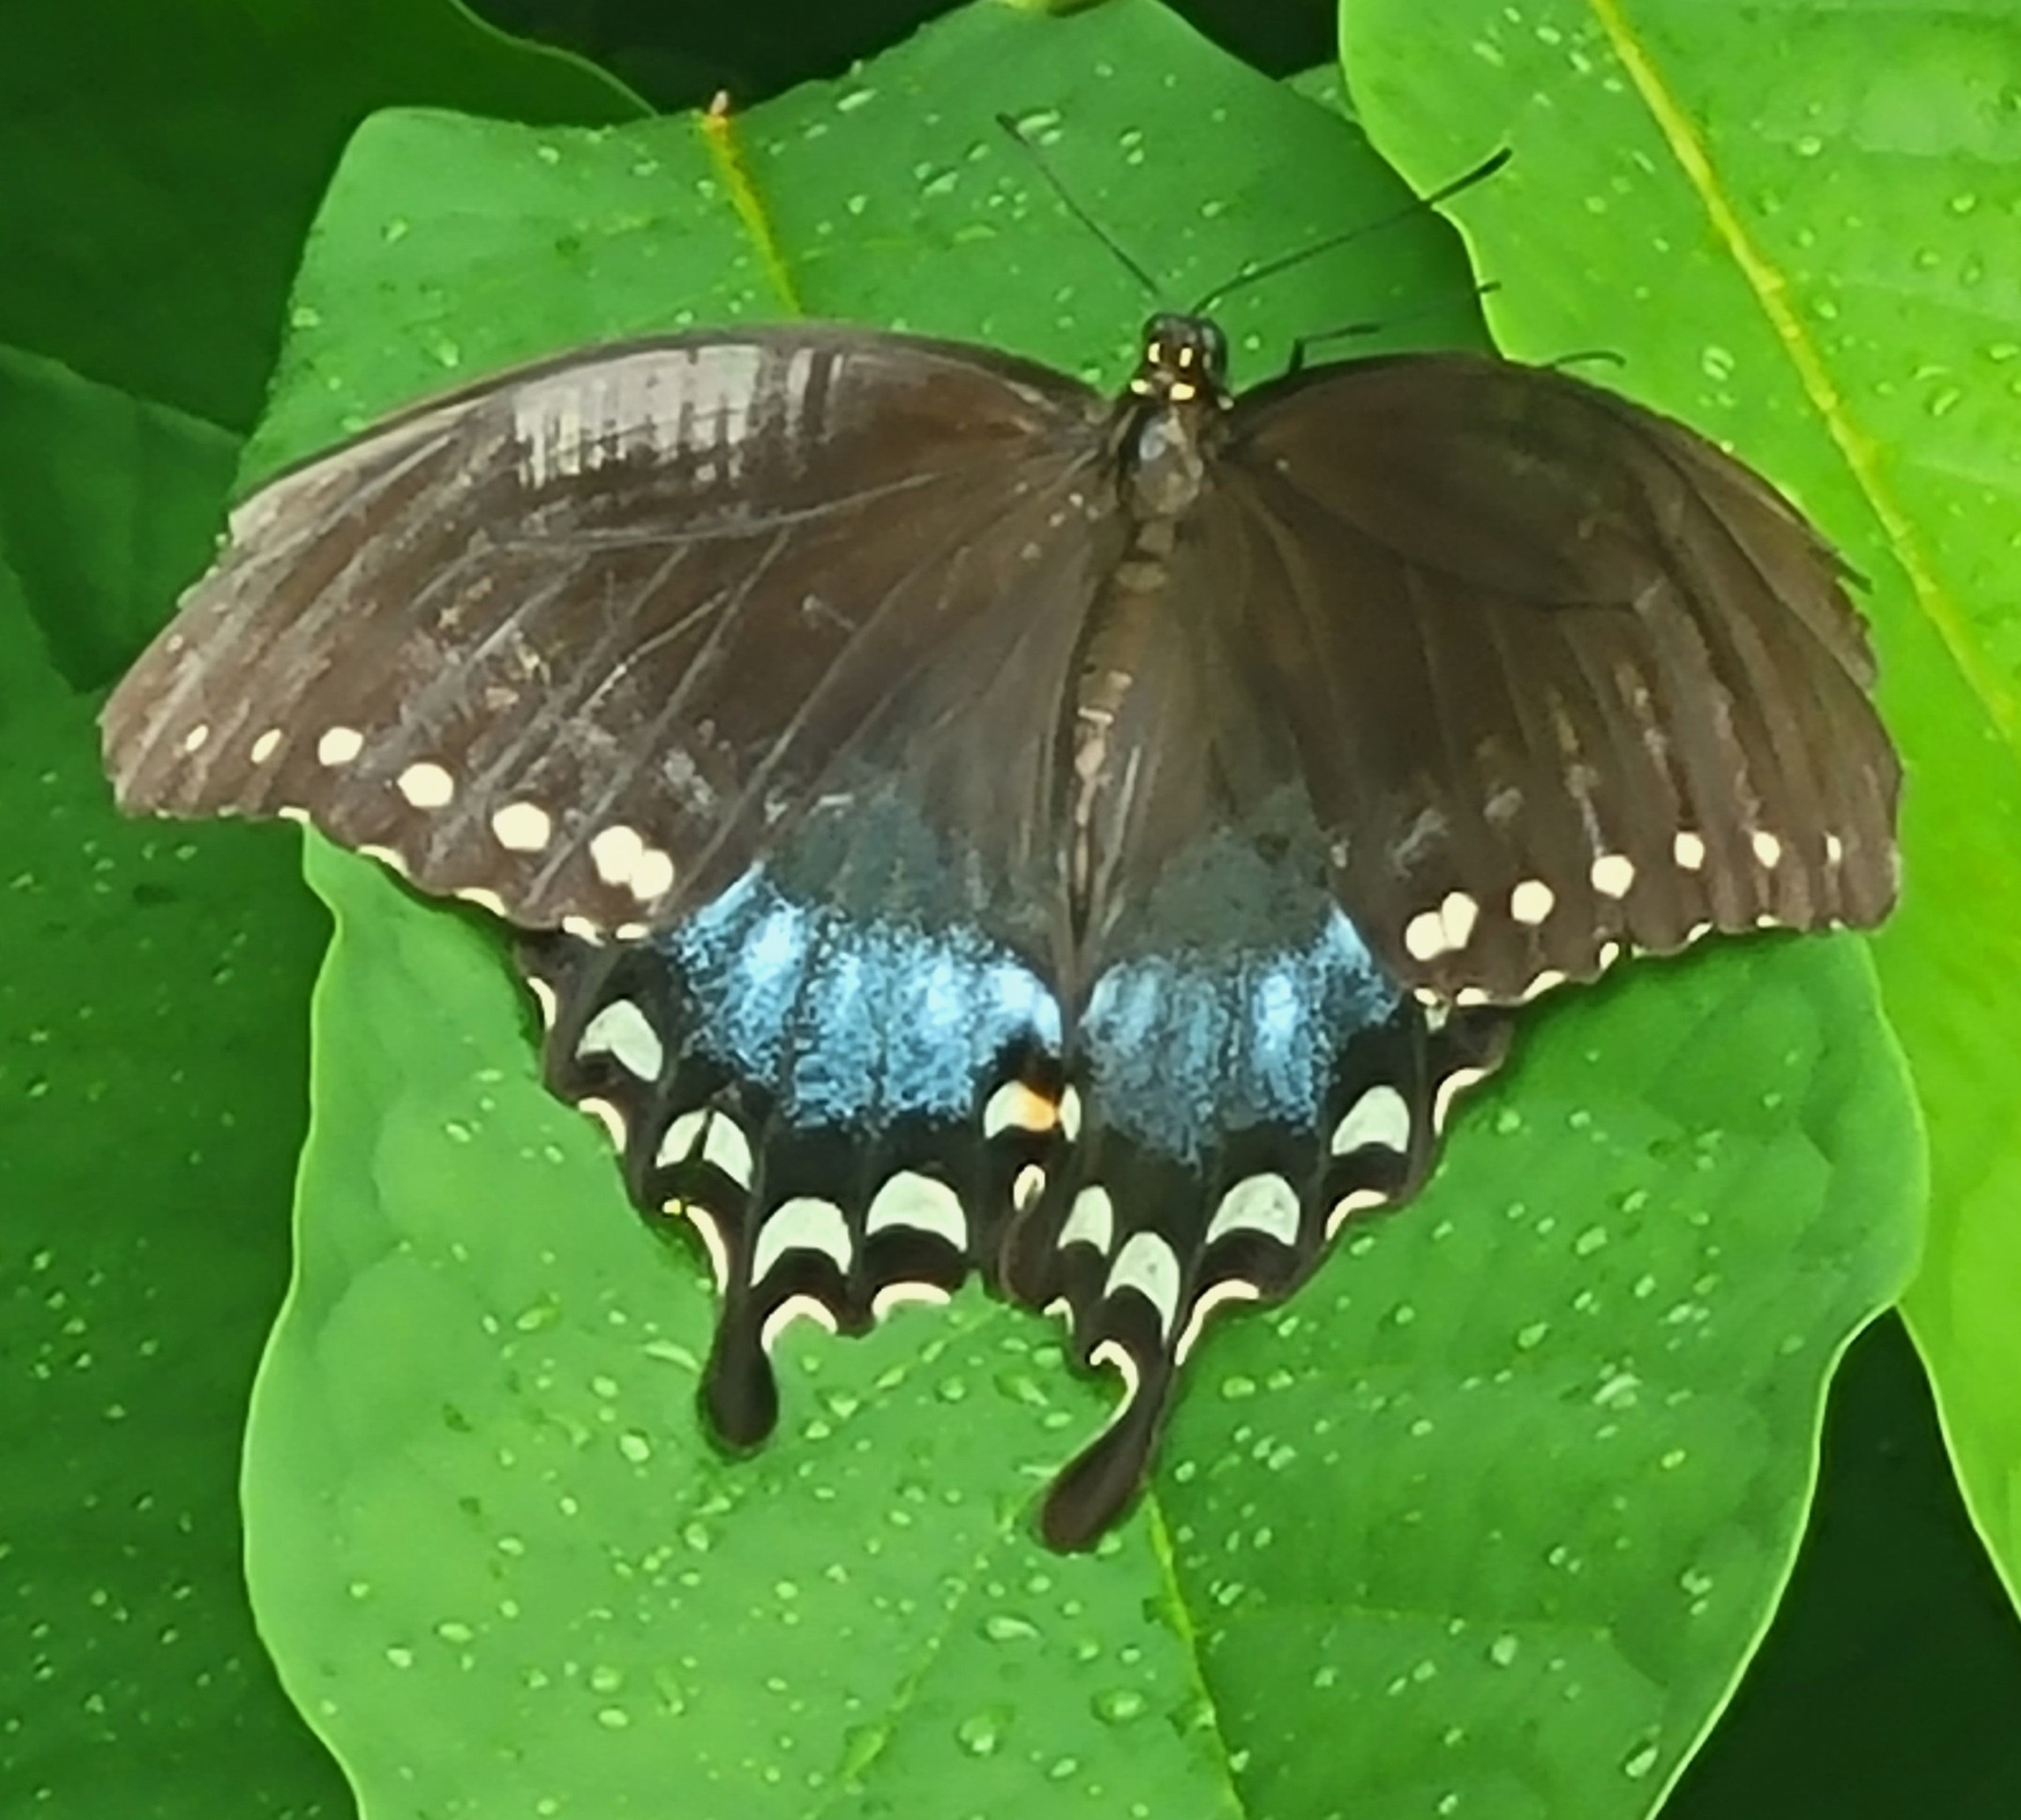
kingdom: Animalia
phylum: Arthropoda
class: Insecta
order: Lepidoptera
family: Papilionidae
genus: Papilio
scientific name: Papilio troilus
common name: Spicebush swallowtail
